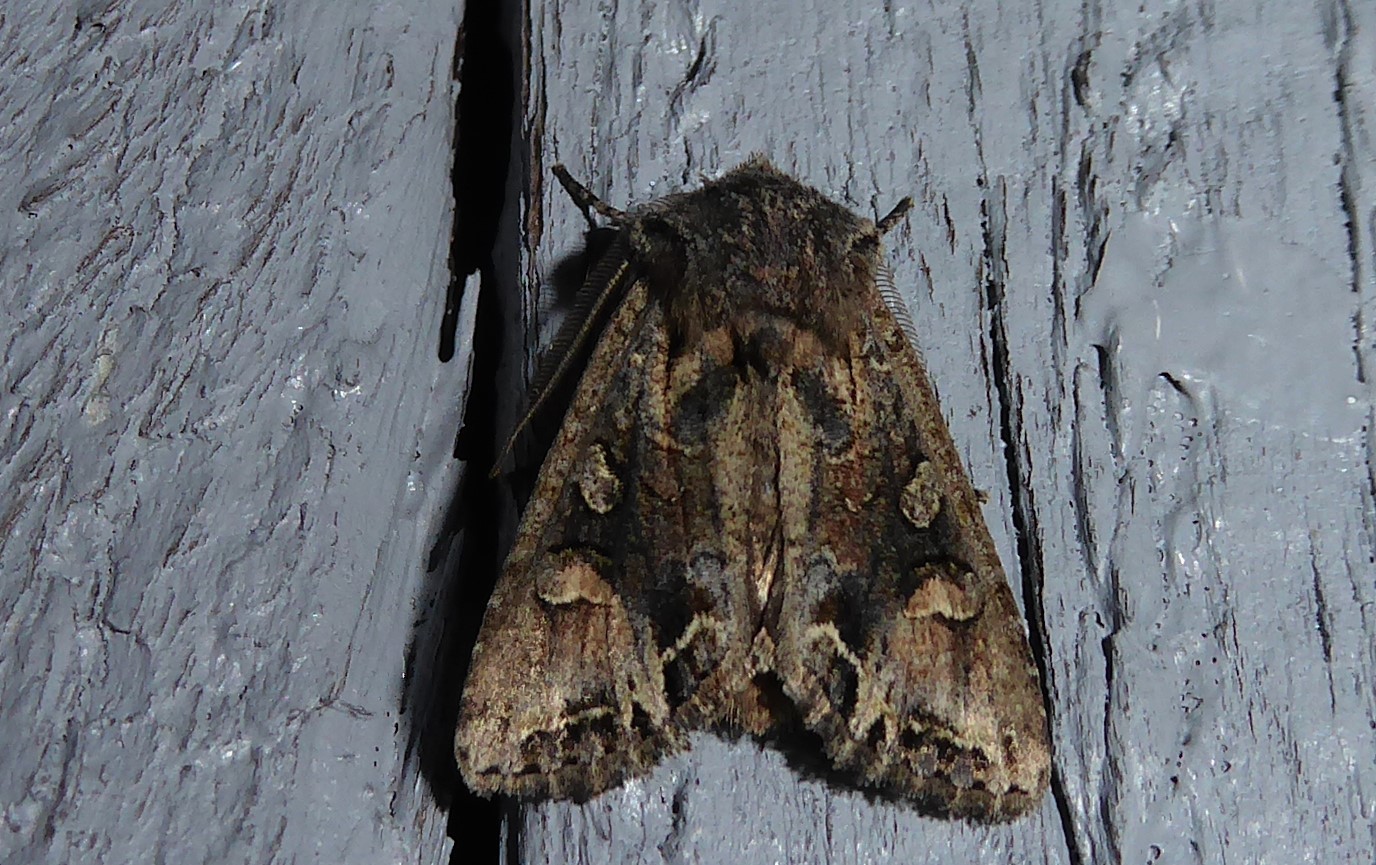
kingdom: Animalia
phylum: Arthropoda
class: Insecta
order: Lepidoptera
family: Noctuidae
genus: Ichneutica
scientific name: Ichneutica skelloni
